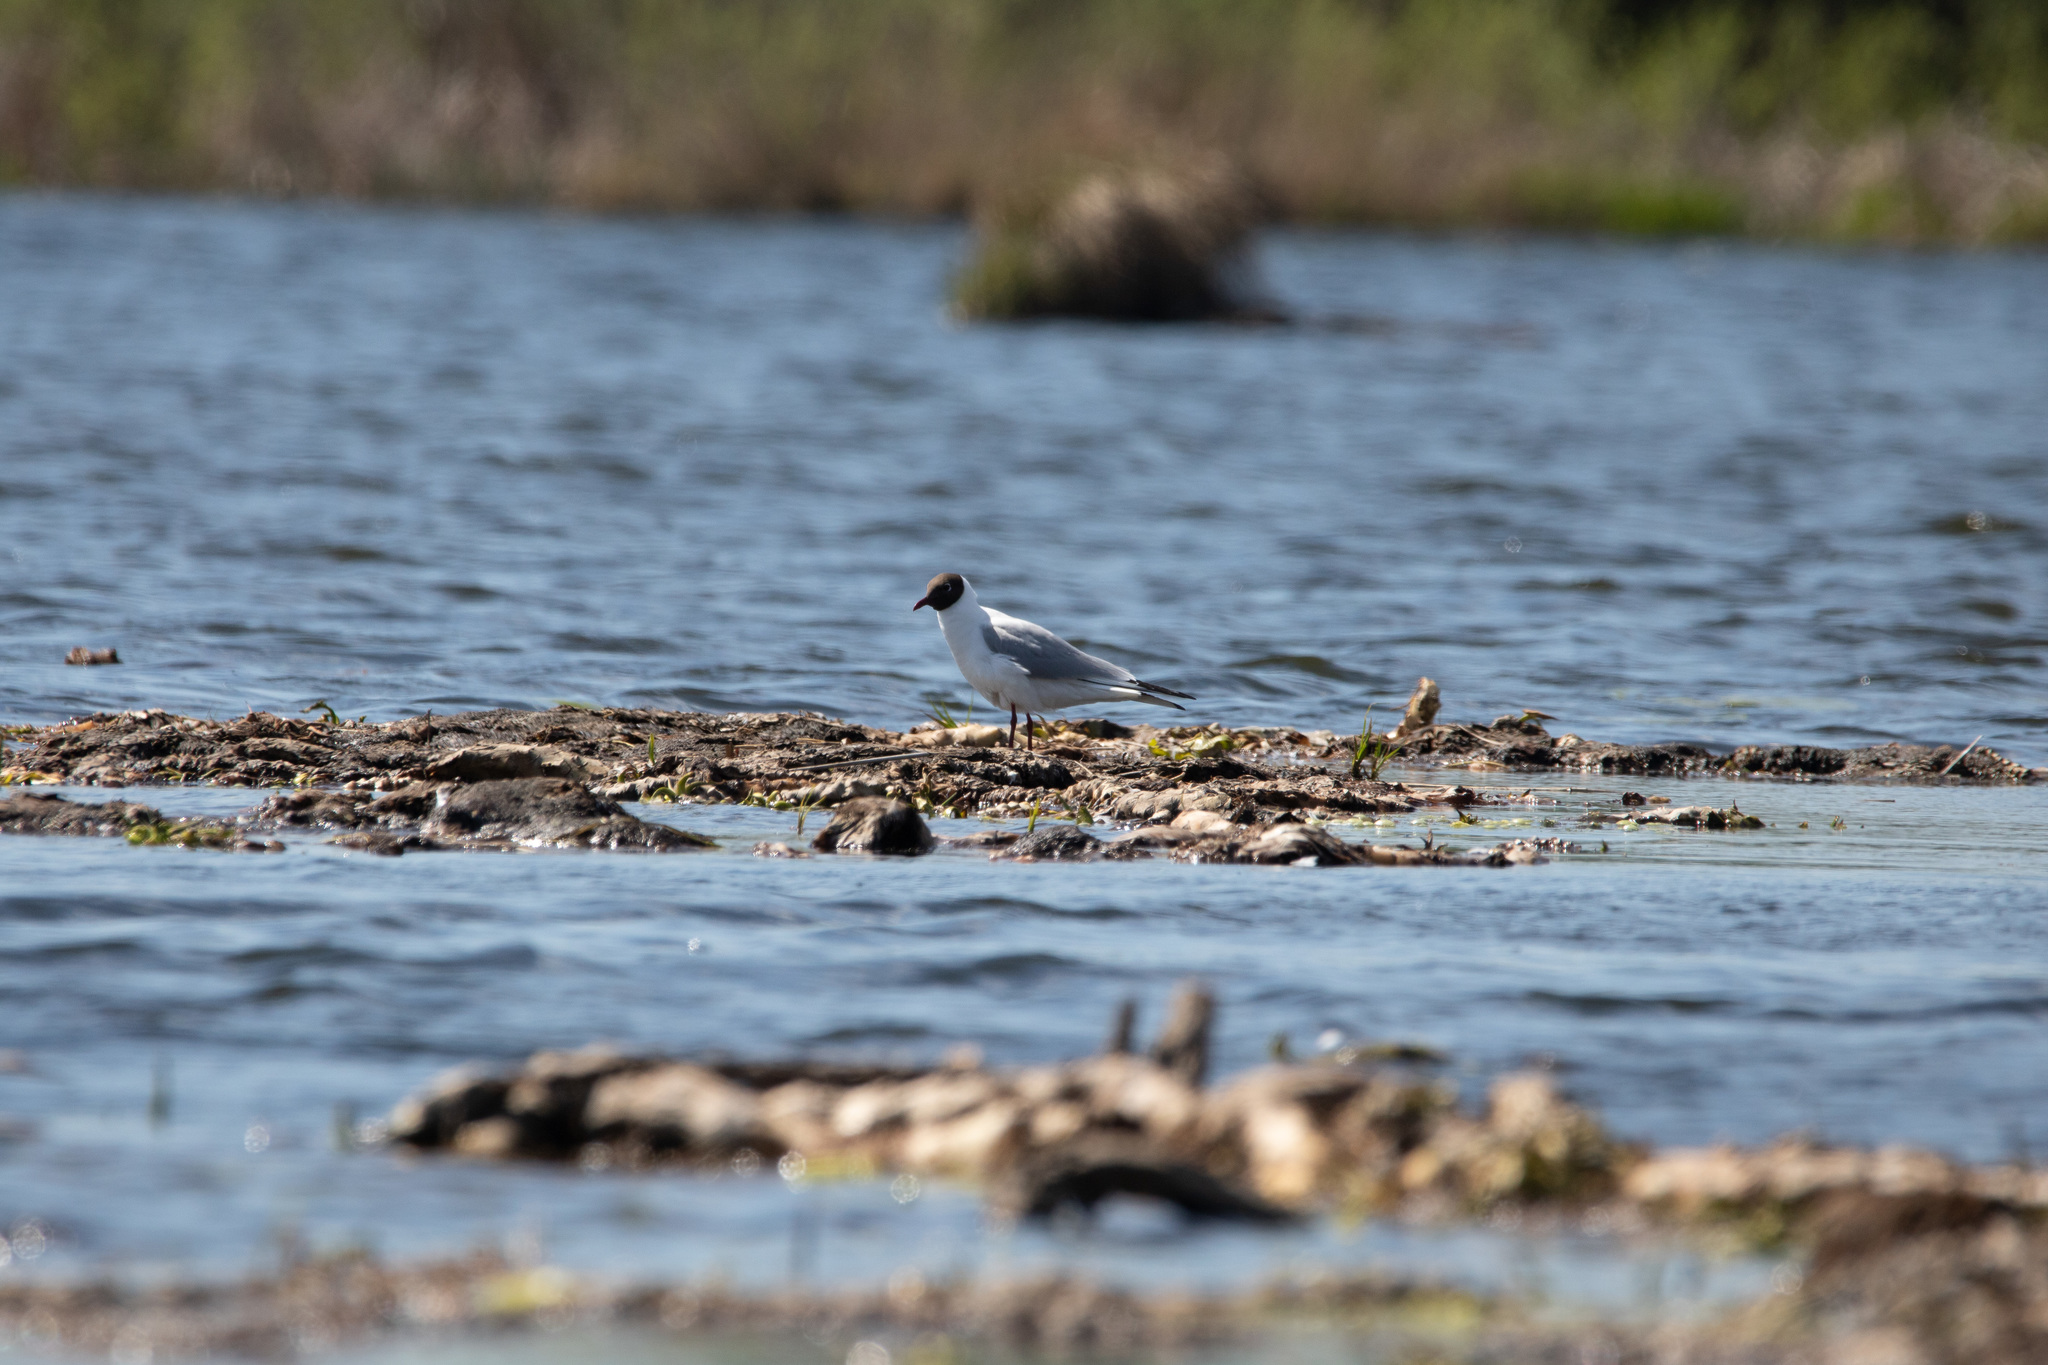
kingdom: Animalia
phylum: Chordata
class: Aves
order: Charadriiformes
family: Laridae
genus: Chroicocephalus
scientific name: Chroicocephalus ridibundus
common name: Black-headed gull
